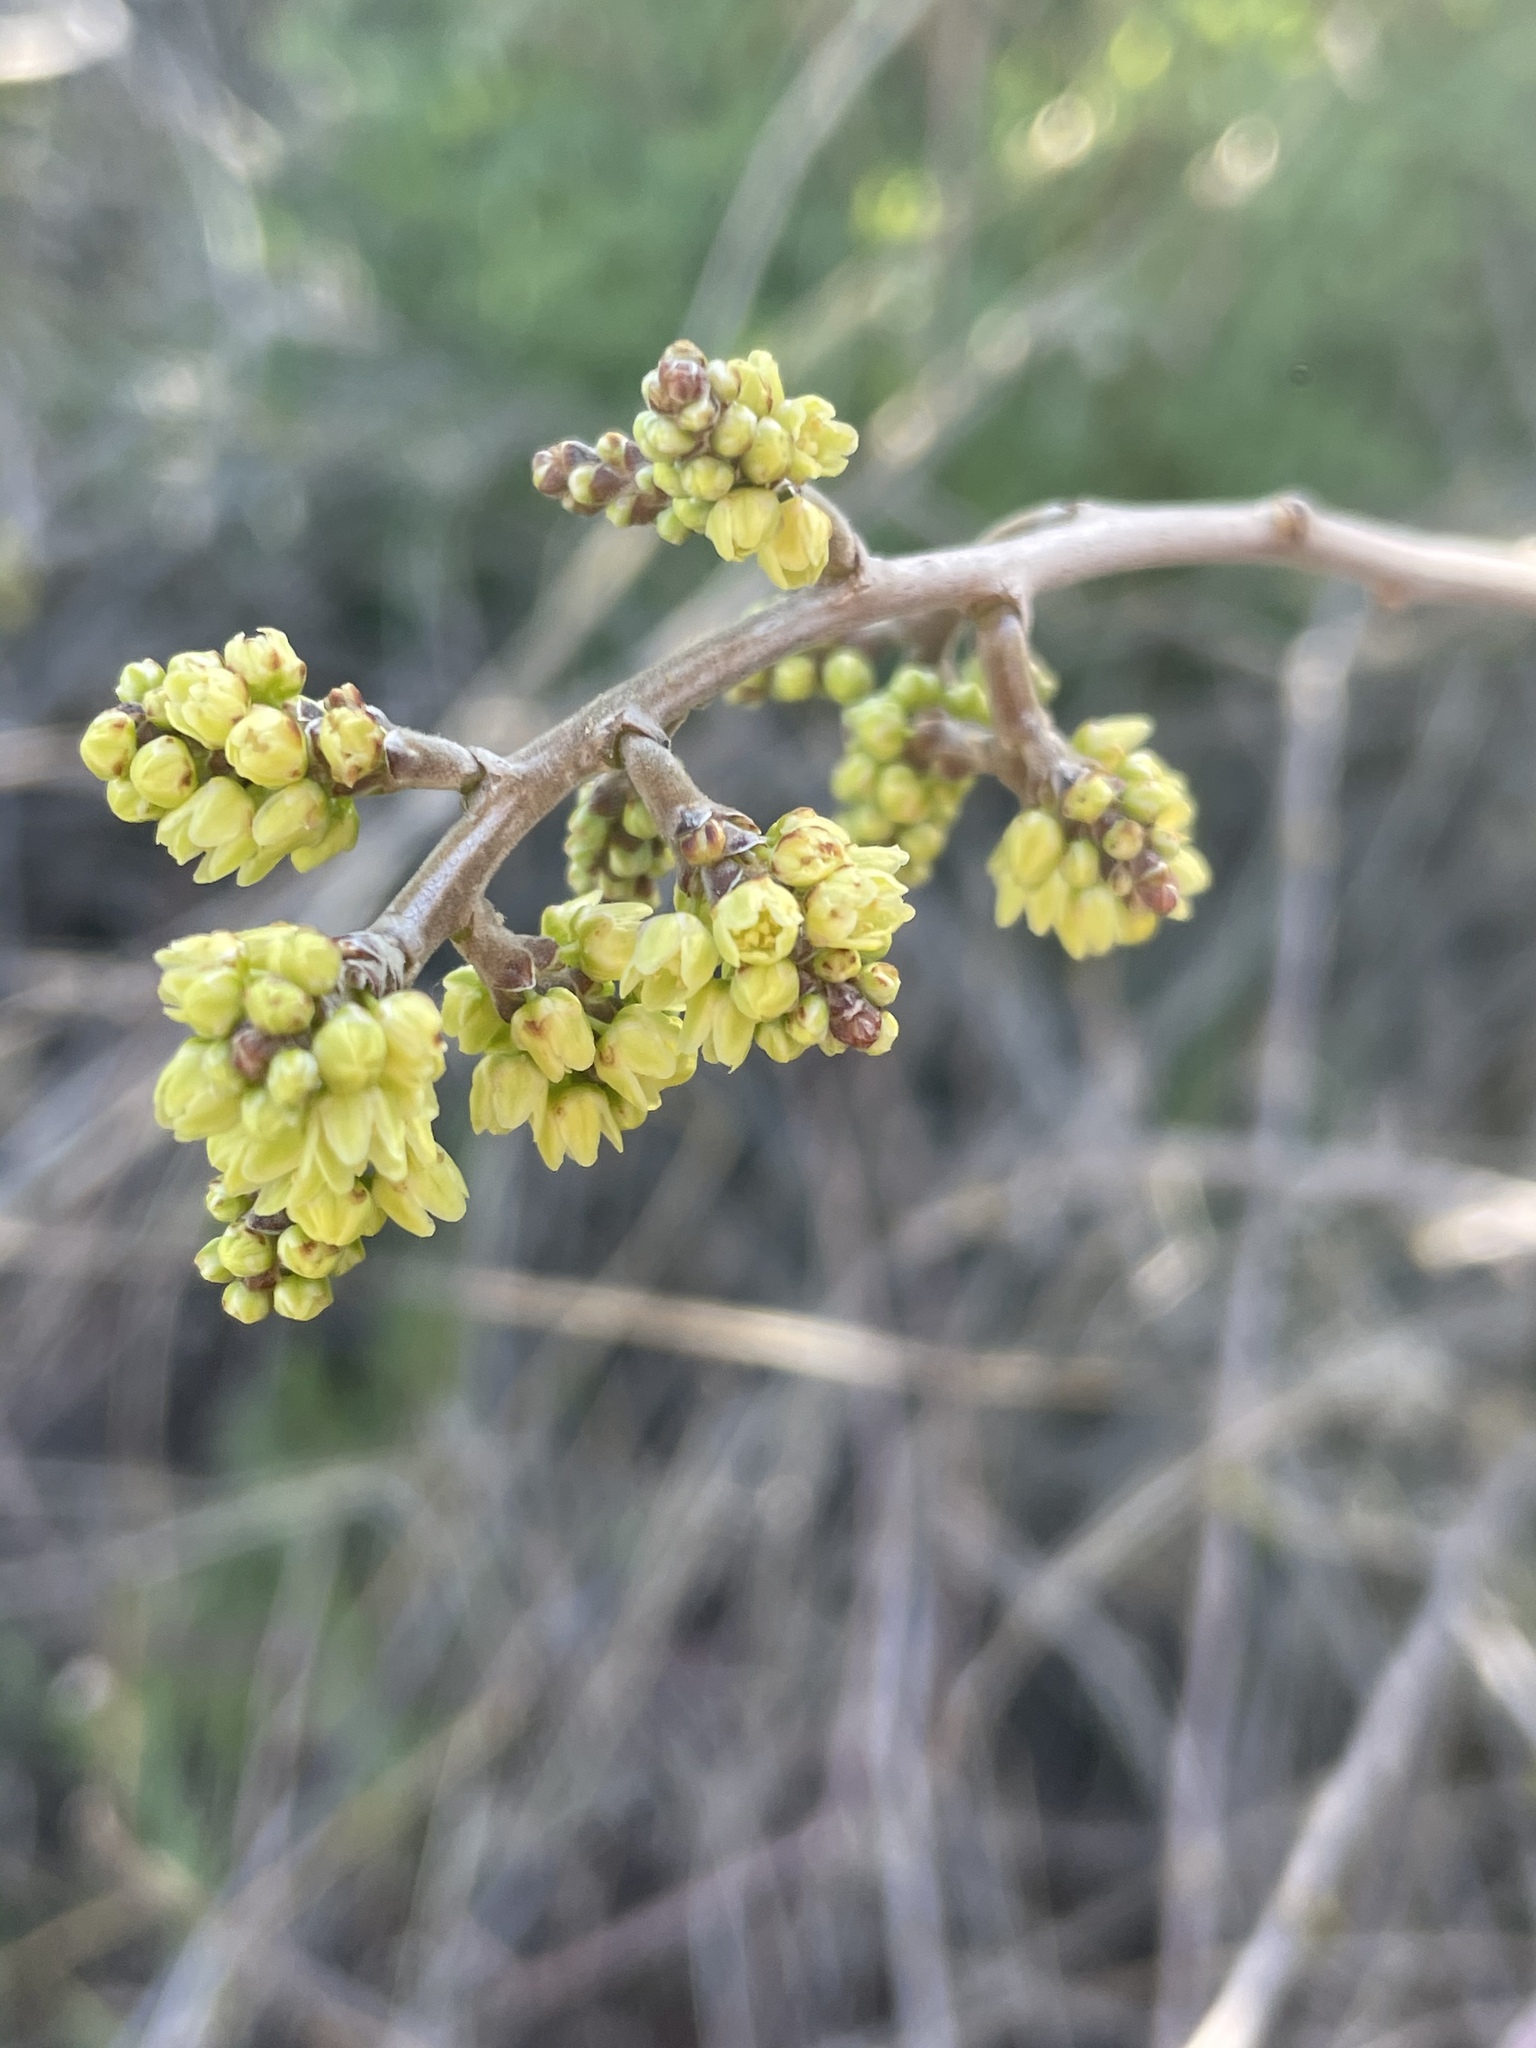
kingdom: Plantae
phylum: Tracheophyta
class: Magnoliopsida
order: Sapindales
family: Anacardiaceae
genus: Rhus
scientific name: Rhus aromatica
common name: Aromatic sumac
